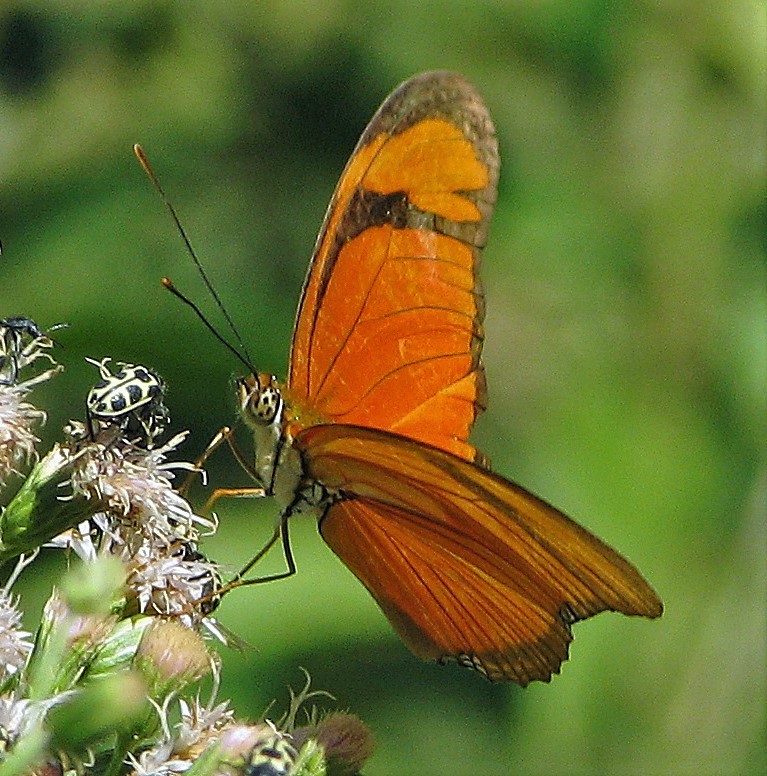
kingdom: Animalia
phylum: Arthropoda
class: Insecta
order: Lepidoptera
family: Nymphalidae
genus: Dryas
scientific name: Dryas iulia
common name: Flambeau
